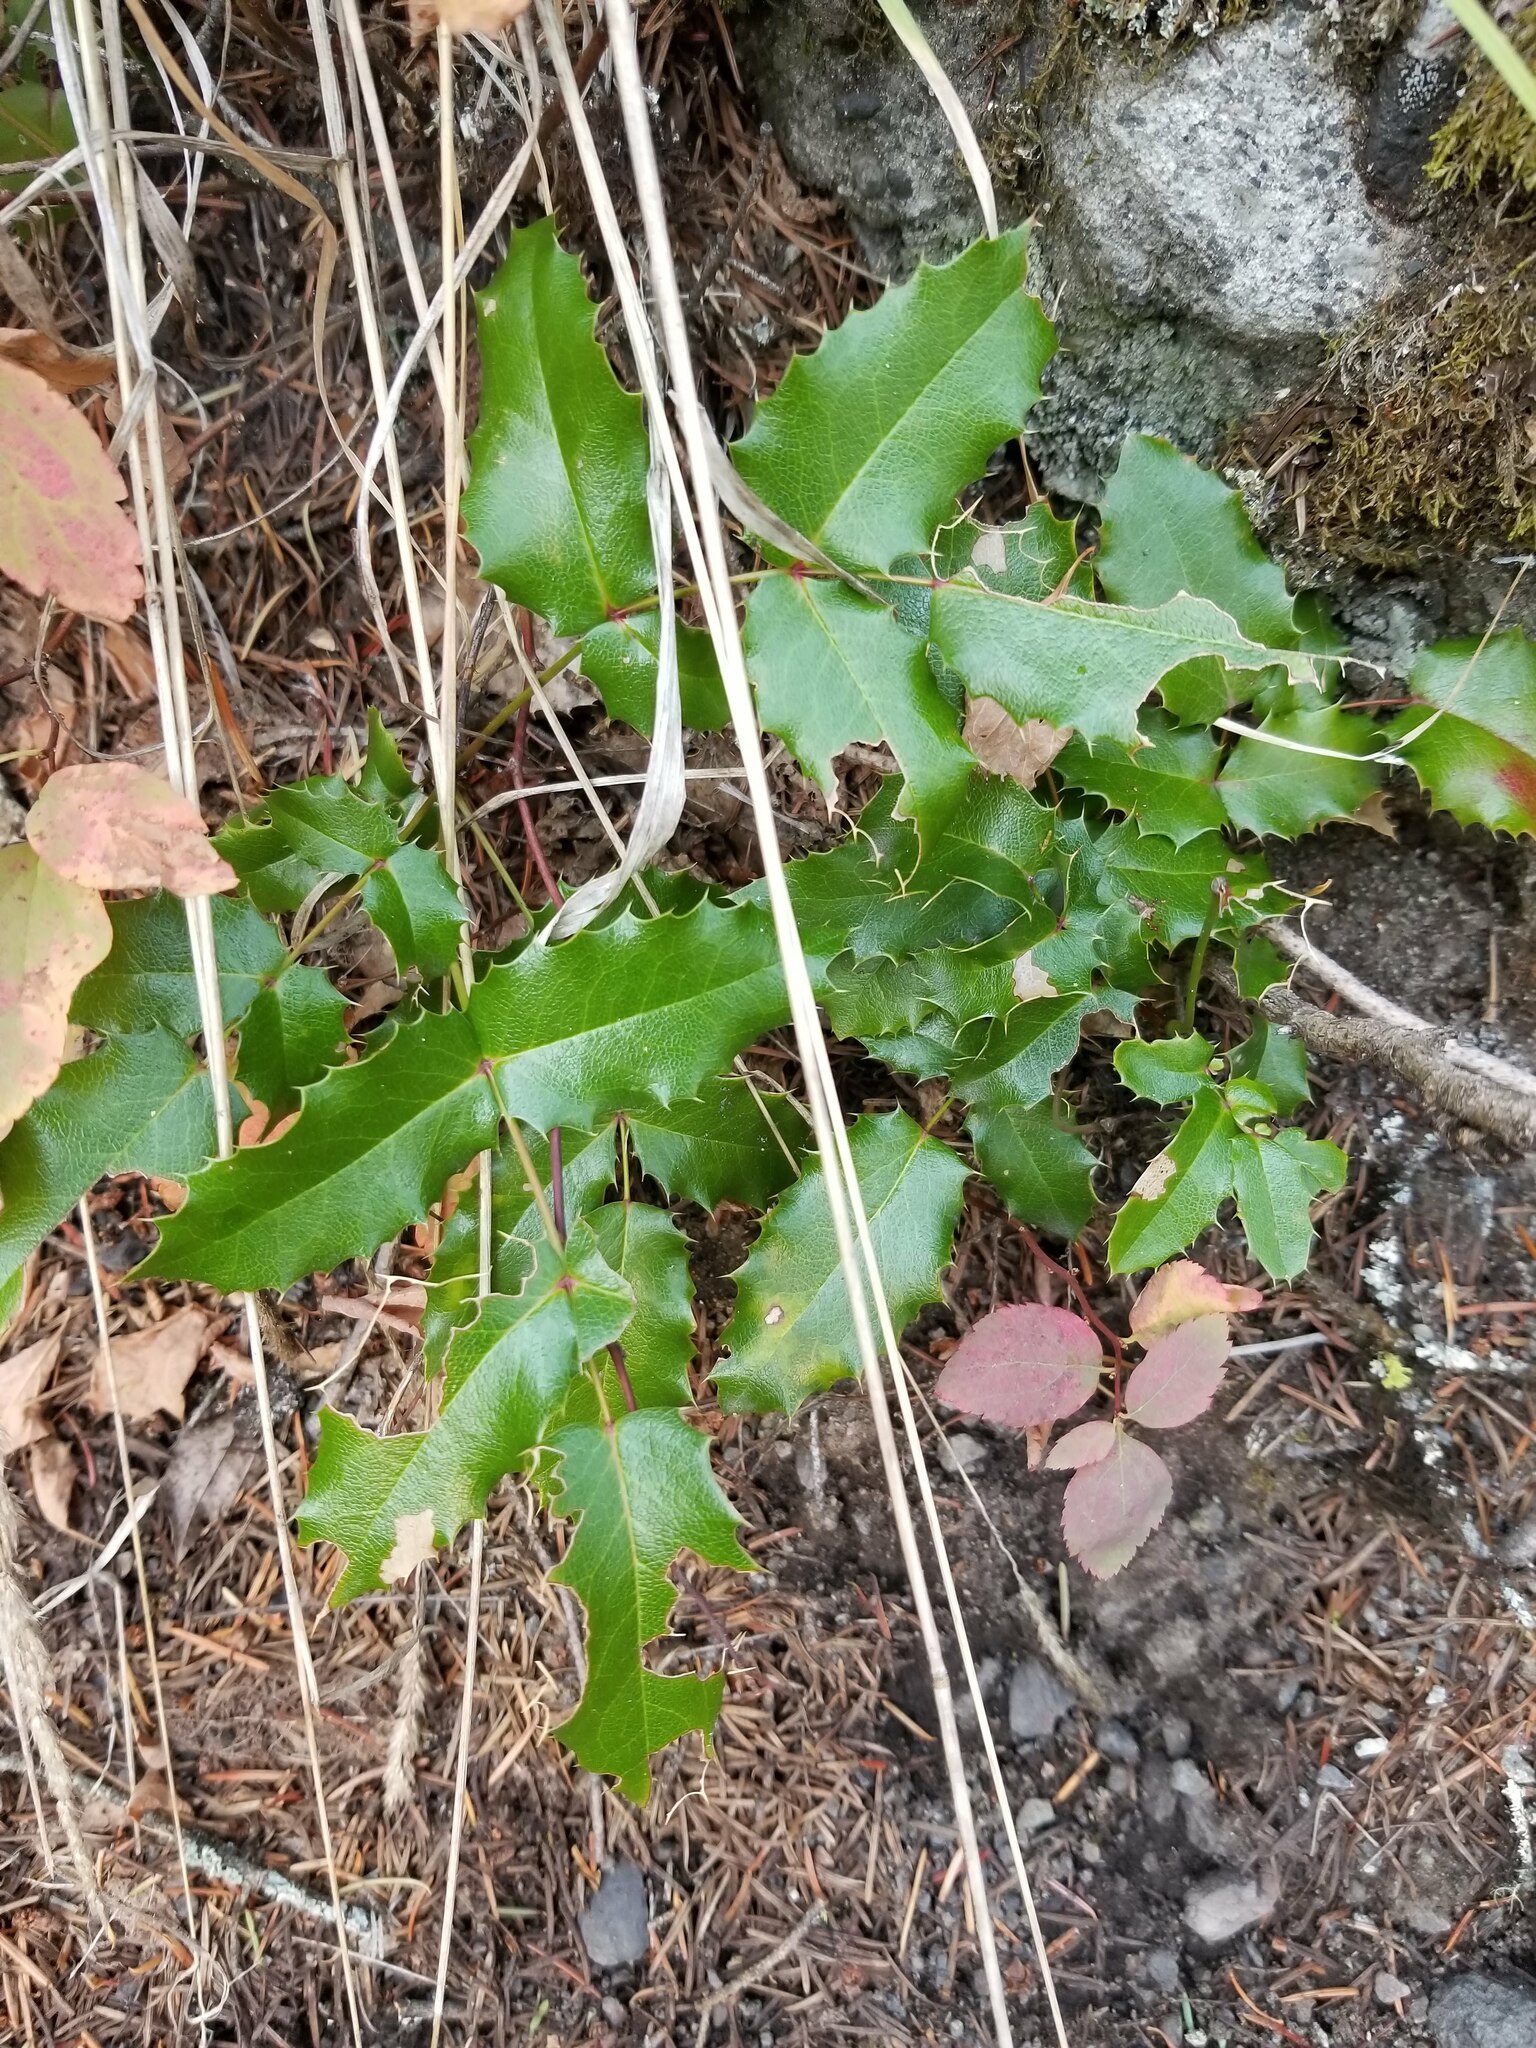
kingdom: Plantae
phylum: Tracheophyta
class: Magnoliopsida
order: Ranunculales
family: Berberidaceae
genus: Mahonia
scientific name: Mahonia aquifolium
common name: Oregon-grape
